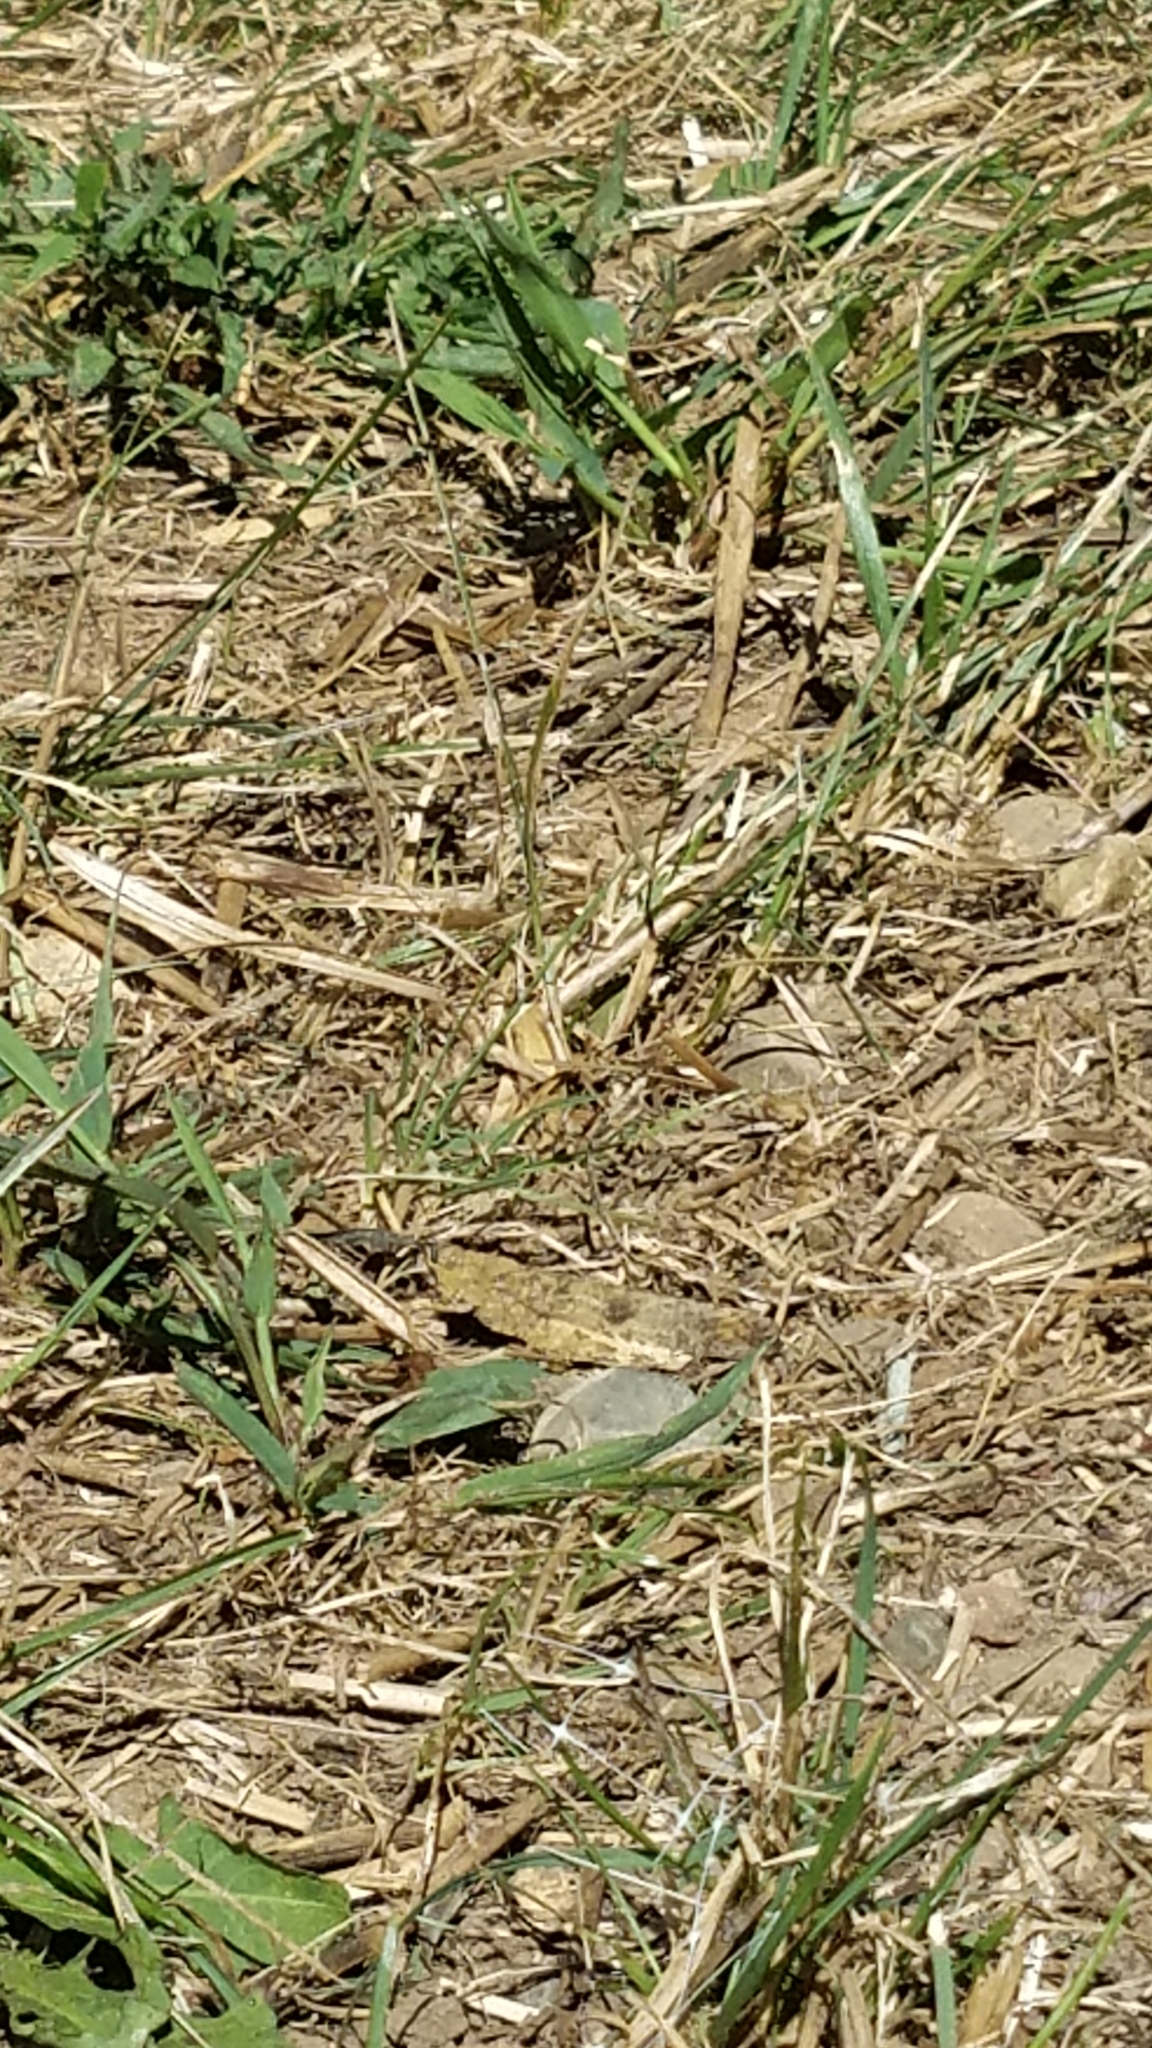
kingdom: Animalia
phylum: Arthropoda
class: Insecta
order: Orthoptera
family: Acrididae
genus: Dissosteira
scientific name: Dissosteira carolina
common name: Carolina grasshopper
